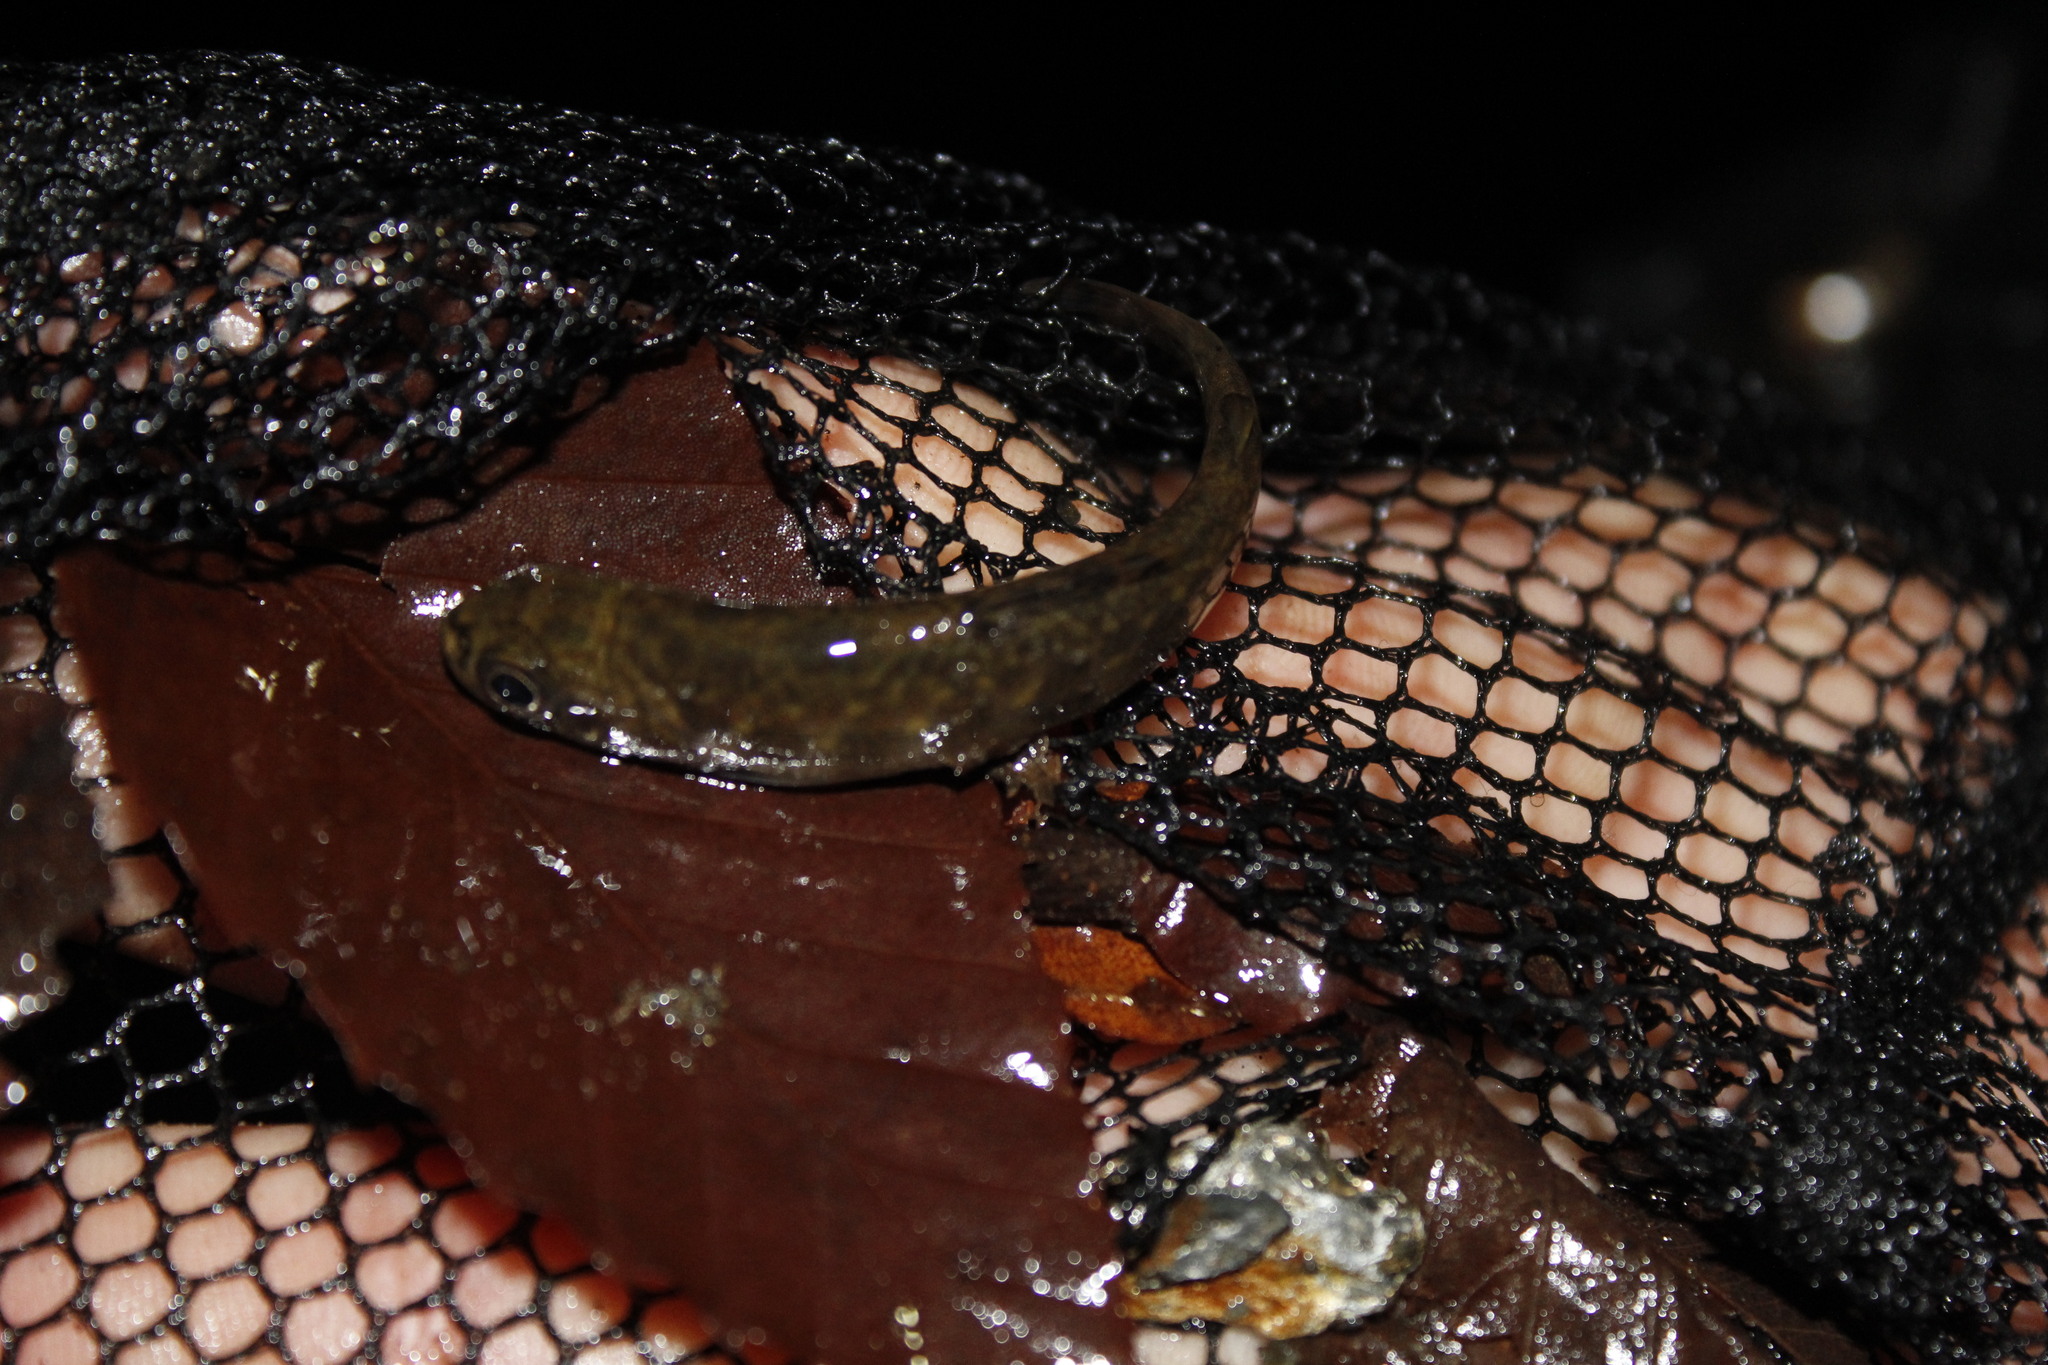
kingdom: Animalia
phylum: Chordata
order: Salmoniformes
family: Salmonidae
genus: Salvelinus
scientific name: Salvelinus fontinalis
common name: Brook trout
